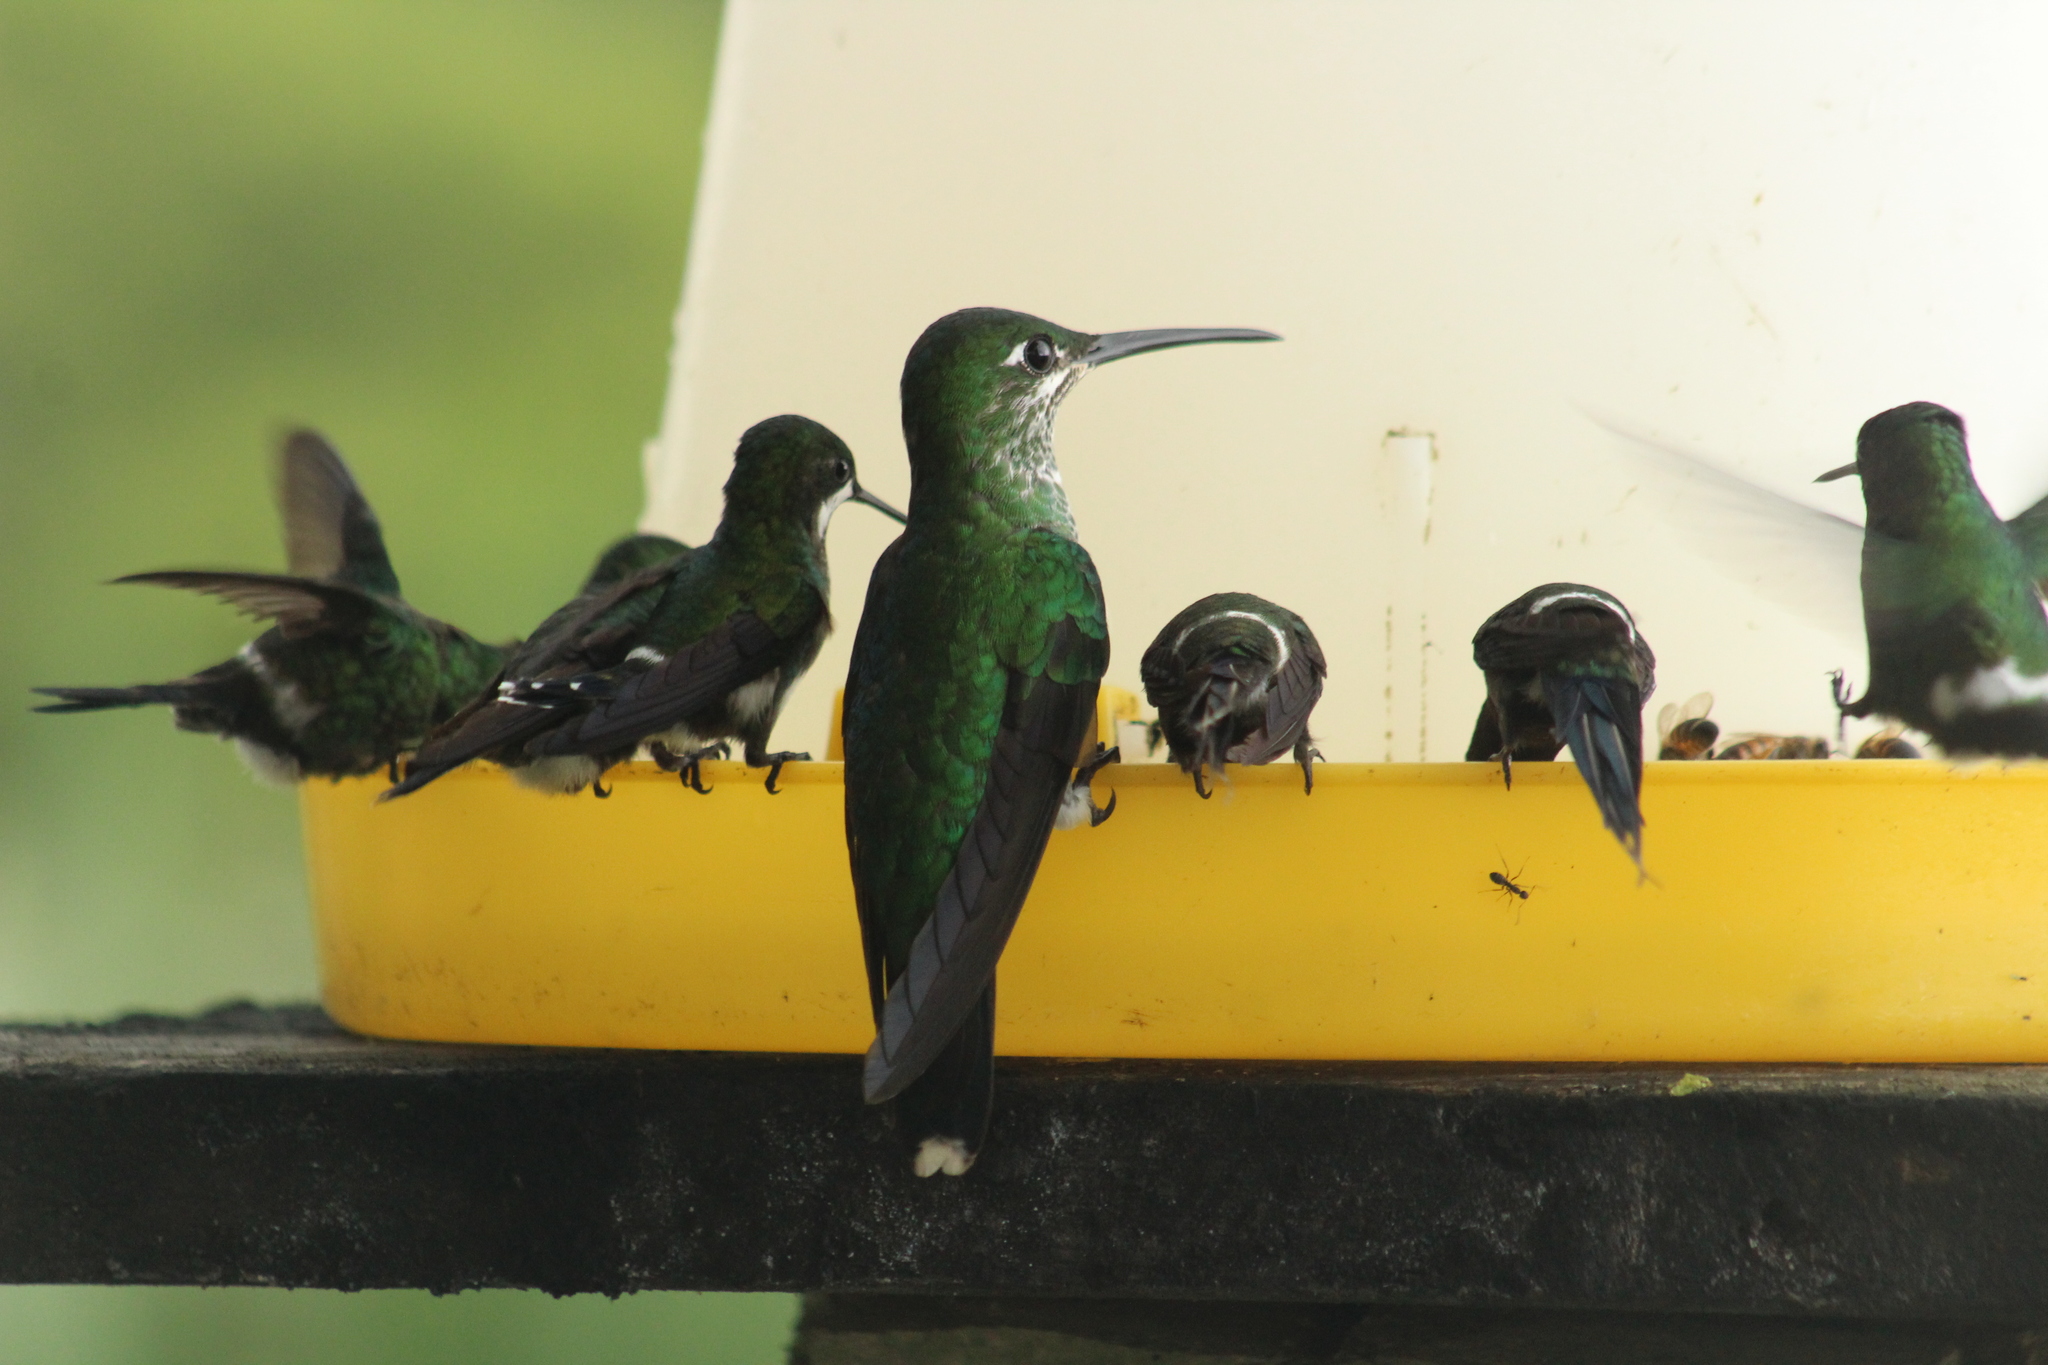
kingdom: Animalia
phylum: Chordata
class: Aves
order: Apodiformes
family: Trochilidae
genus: Heliodoxa
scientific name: Heliodoxa jacula
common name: Green-crowned brilliant
